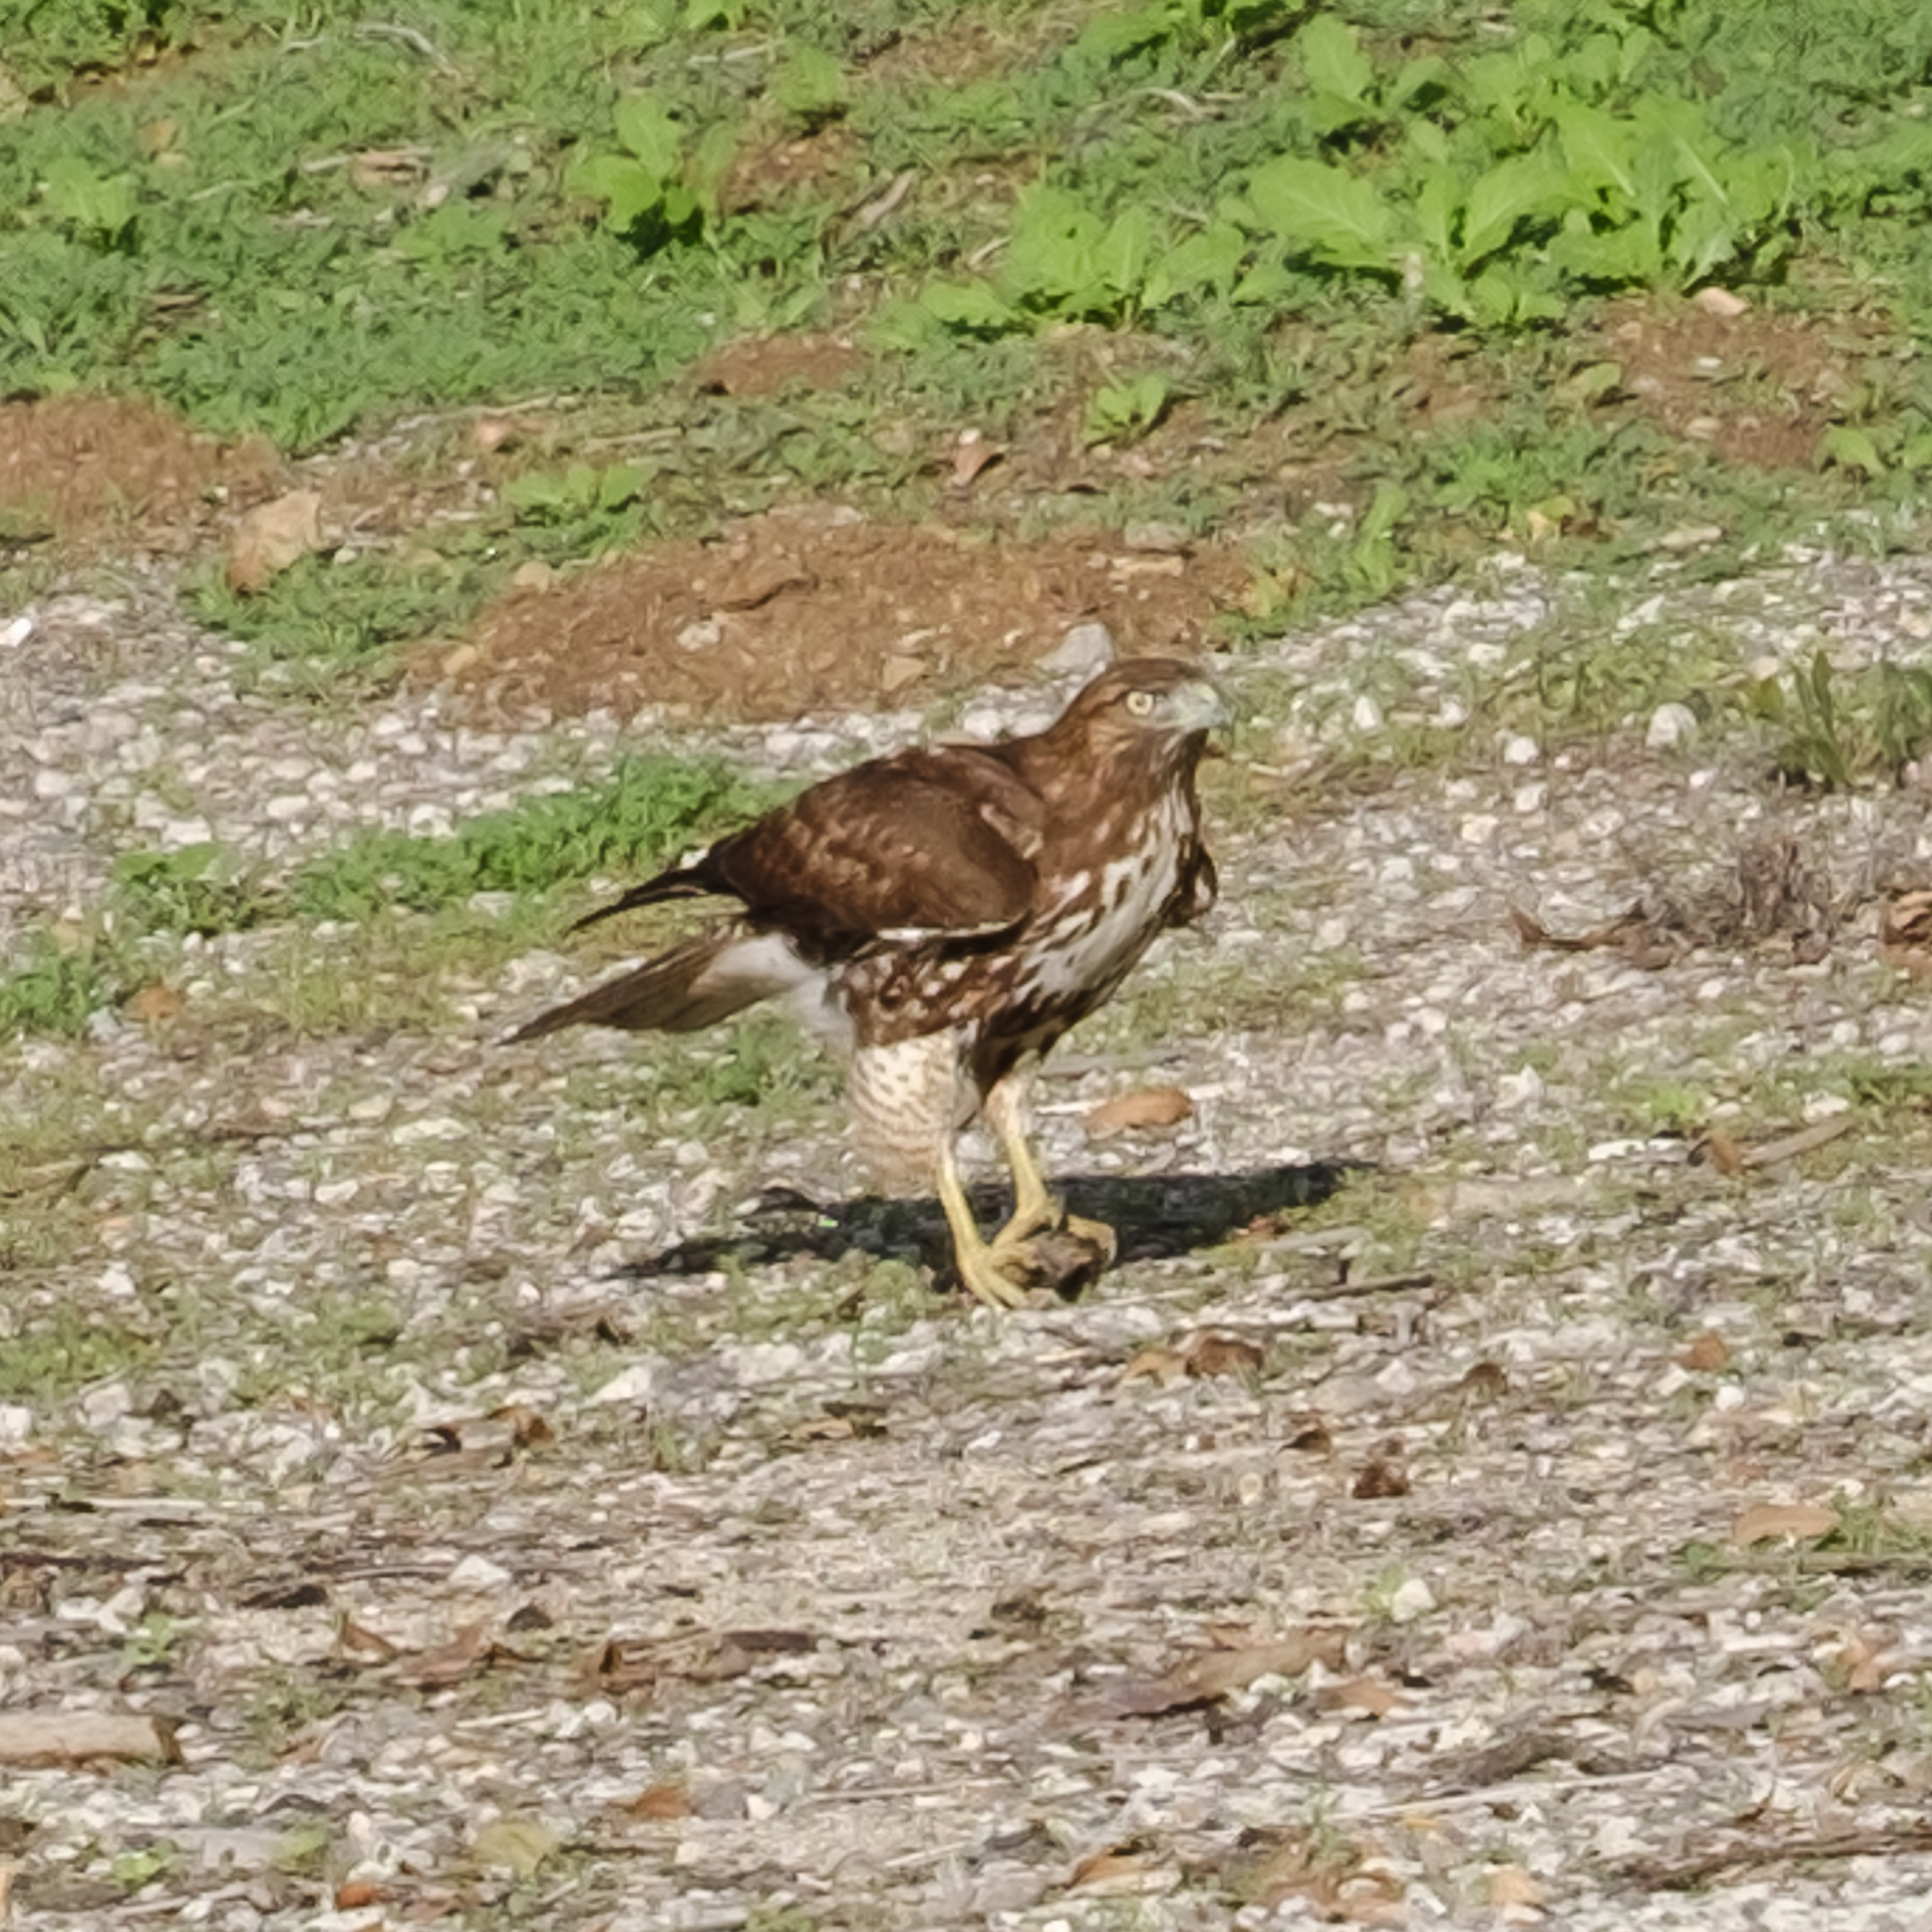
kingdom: Animalia
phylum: Chordata
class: Aves
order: Accipitriformes
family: Accipitridae
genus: Buteo
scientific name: Buteo jamaicensis
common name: Red-tailed hawk
